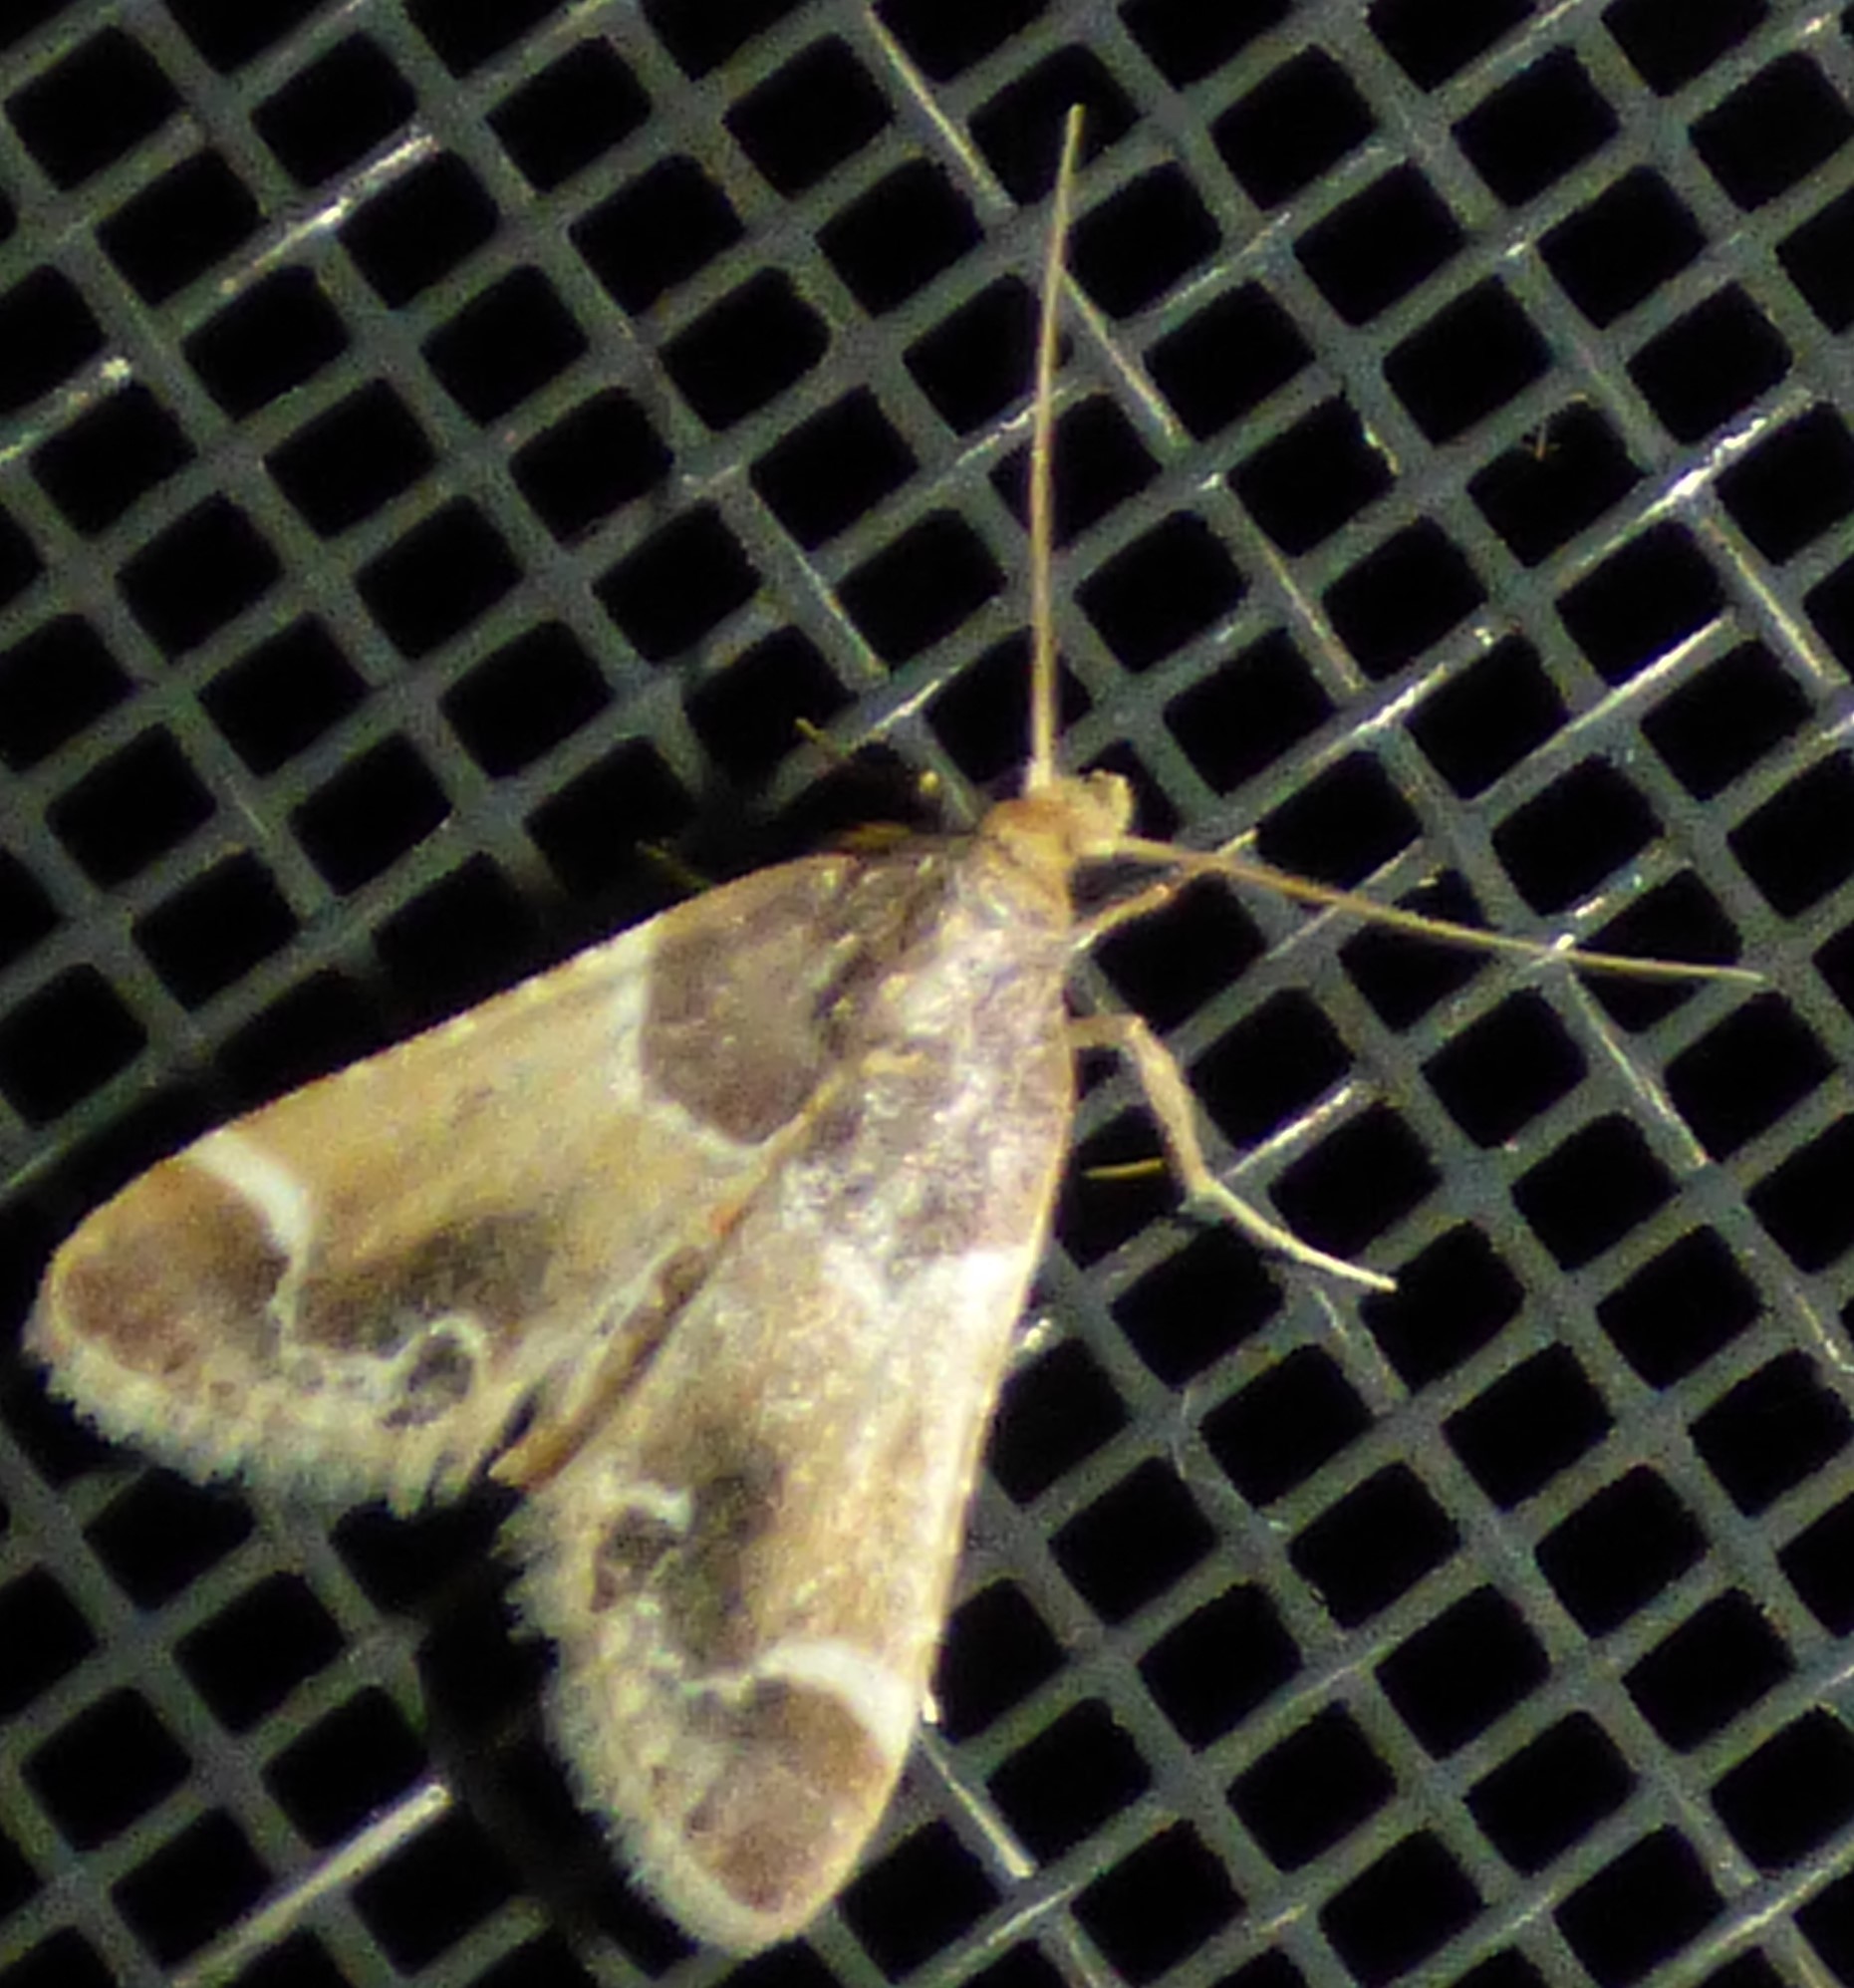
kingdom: Animalia
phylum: Arthropoda
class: Insecta
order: Lepidoptera
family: Pyralidae
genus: Pyralis
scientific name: Pyralis farinalis
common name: Meal moth
